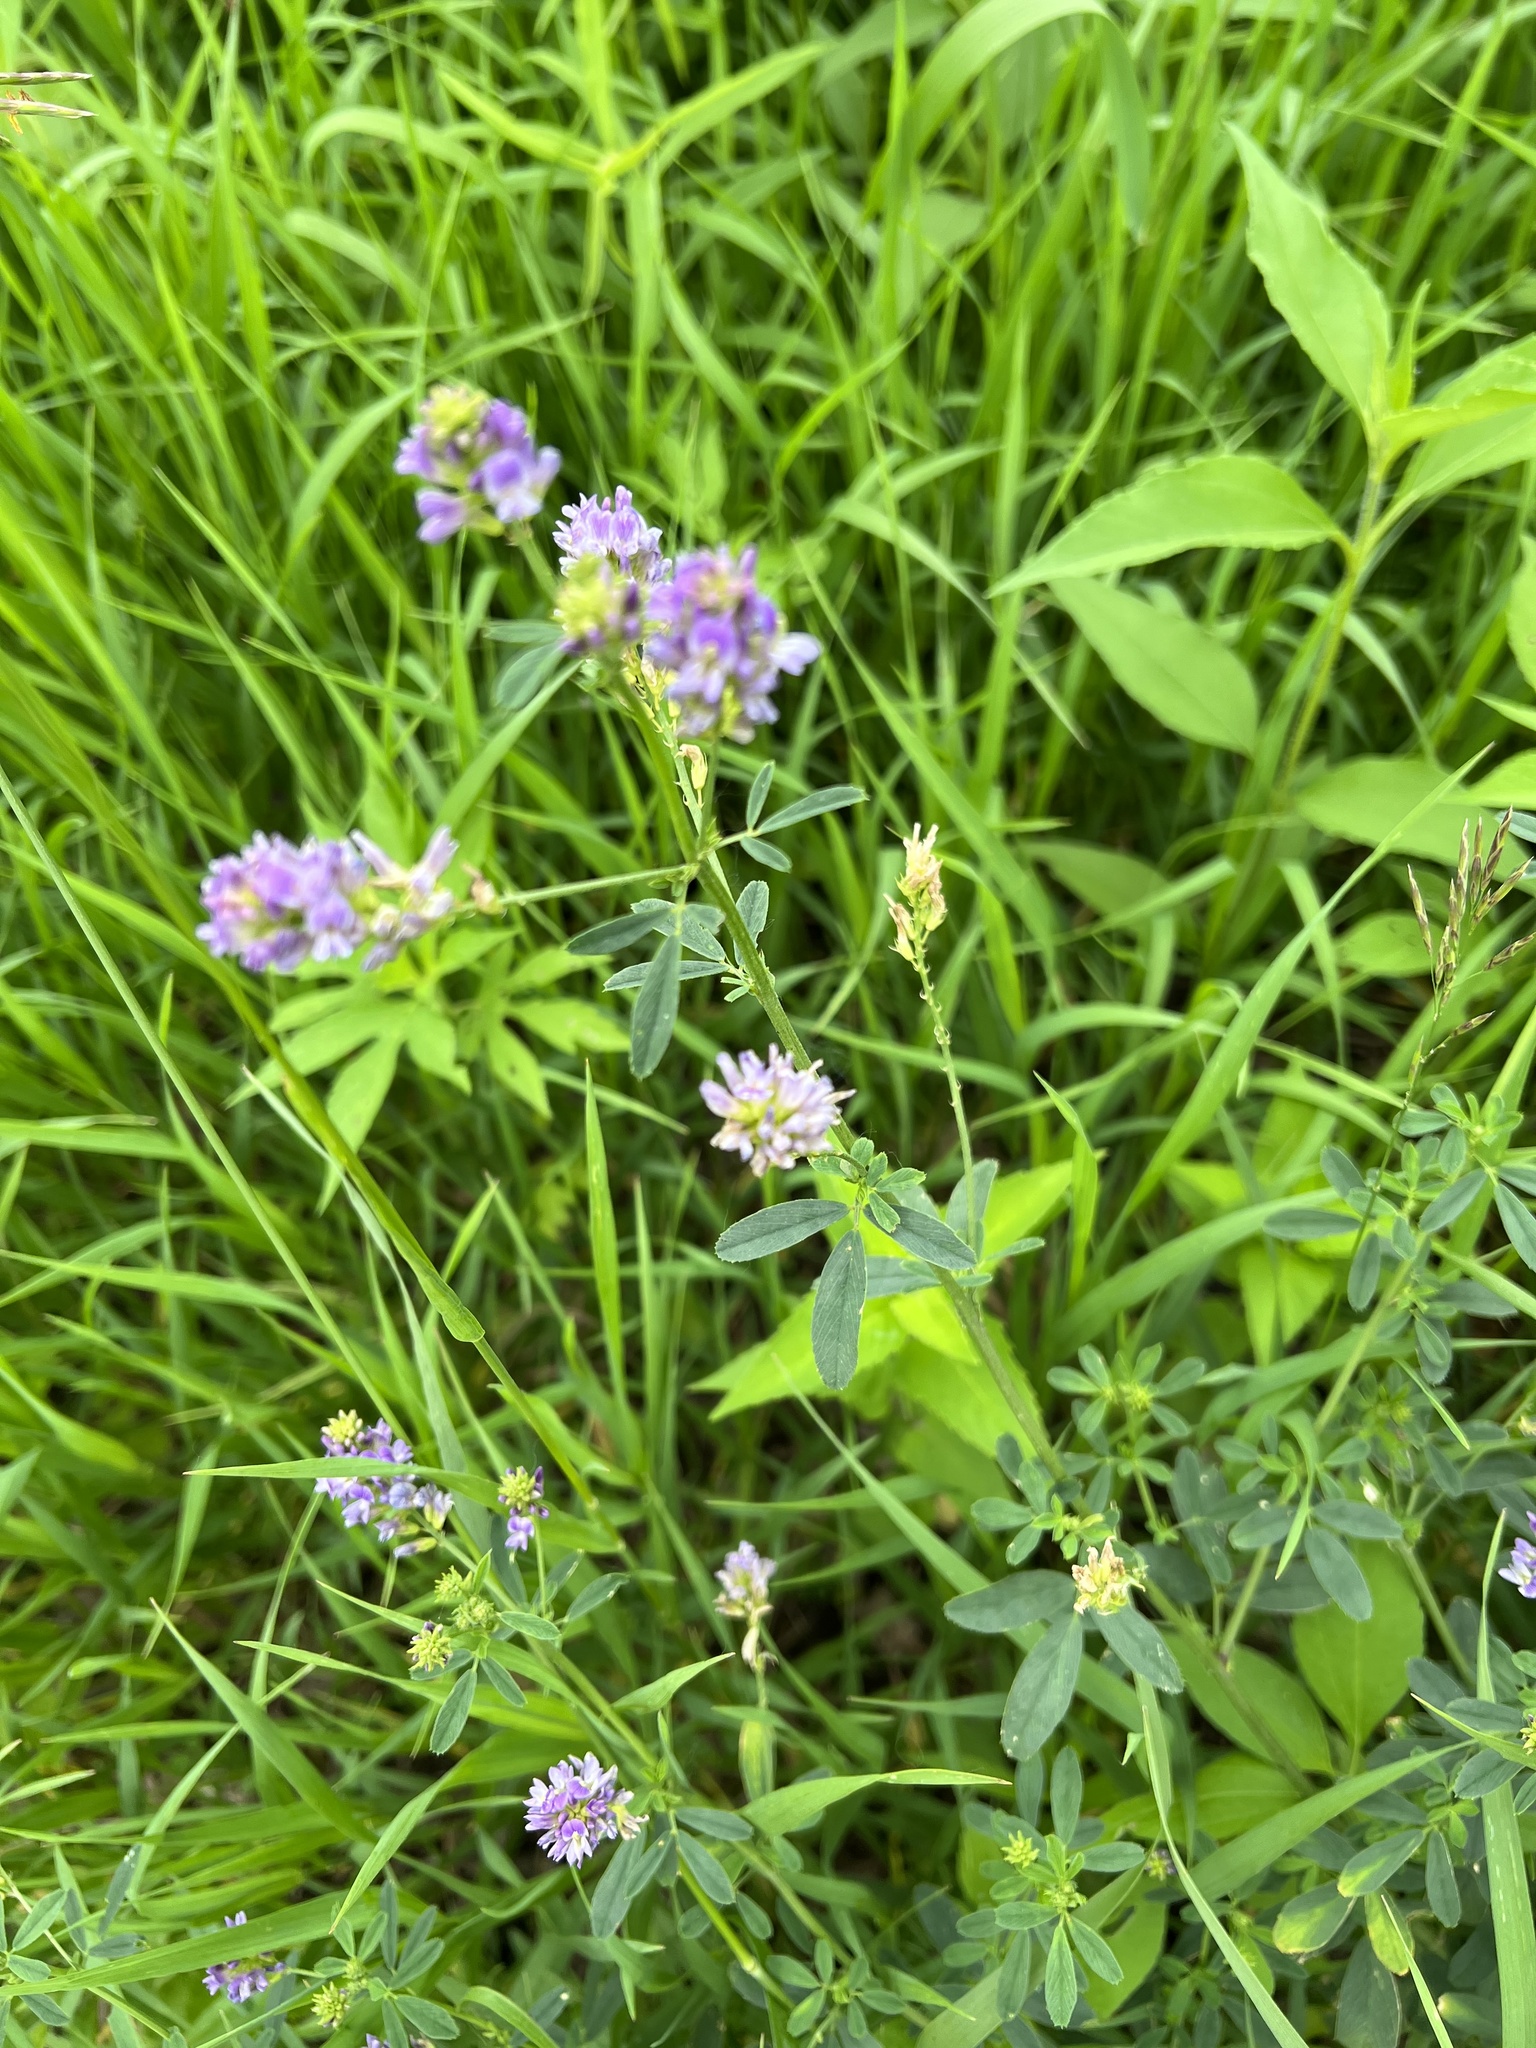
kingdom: Plantae
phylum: Tracheophyta
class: Magnoliopsida
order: Fabales
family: Fabaceae
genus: Medicago
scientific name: Medicago sativa
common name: Alfalfa
